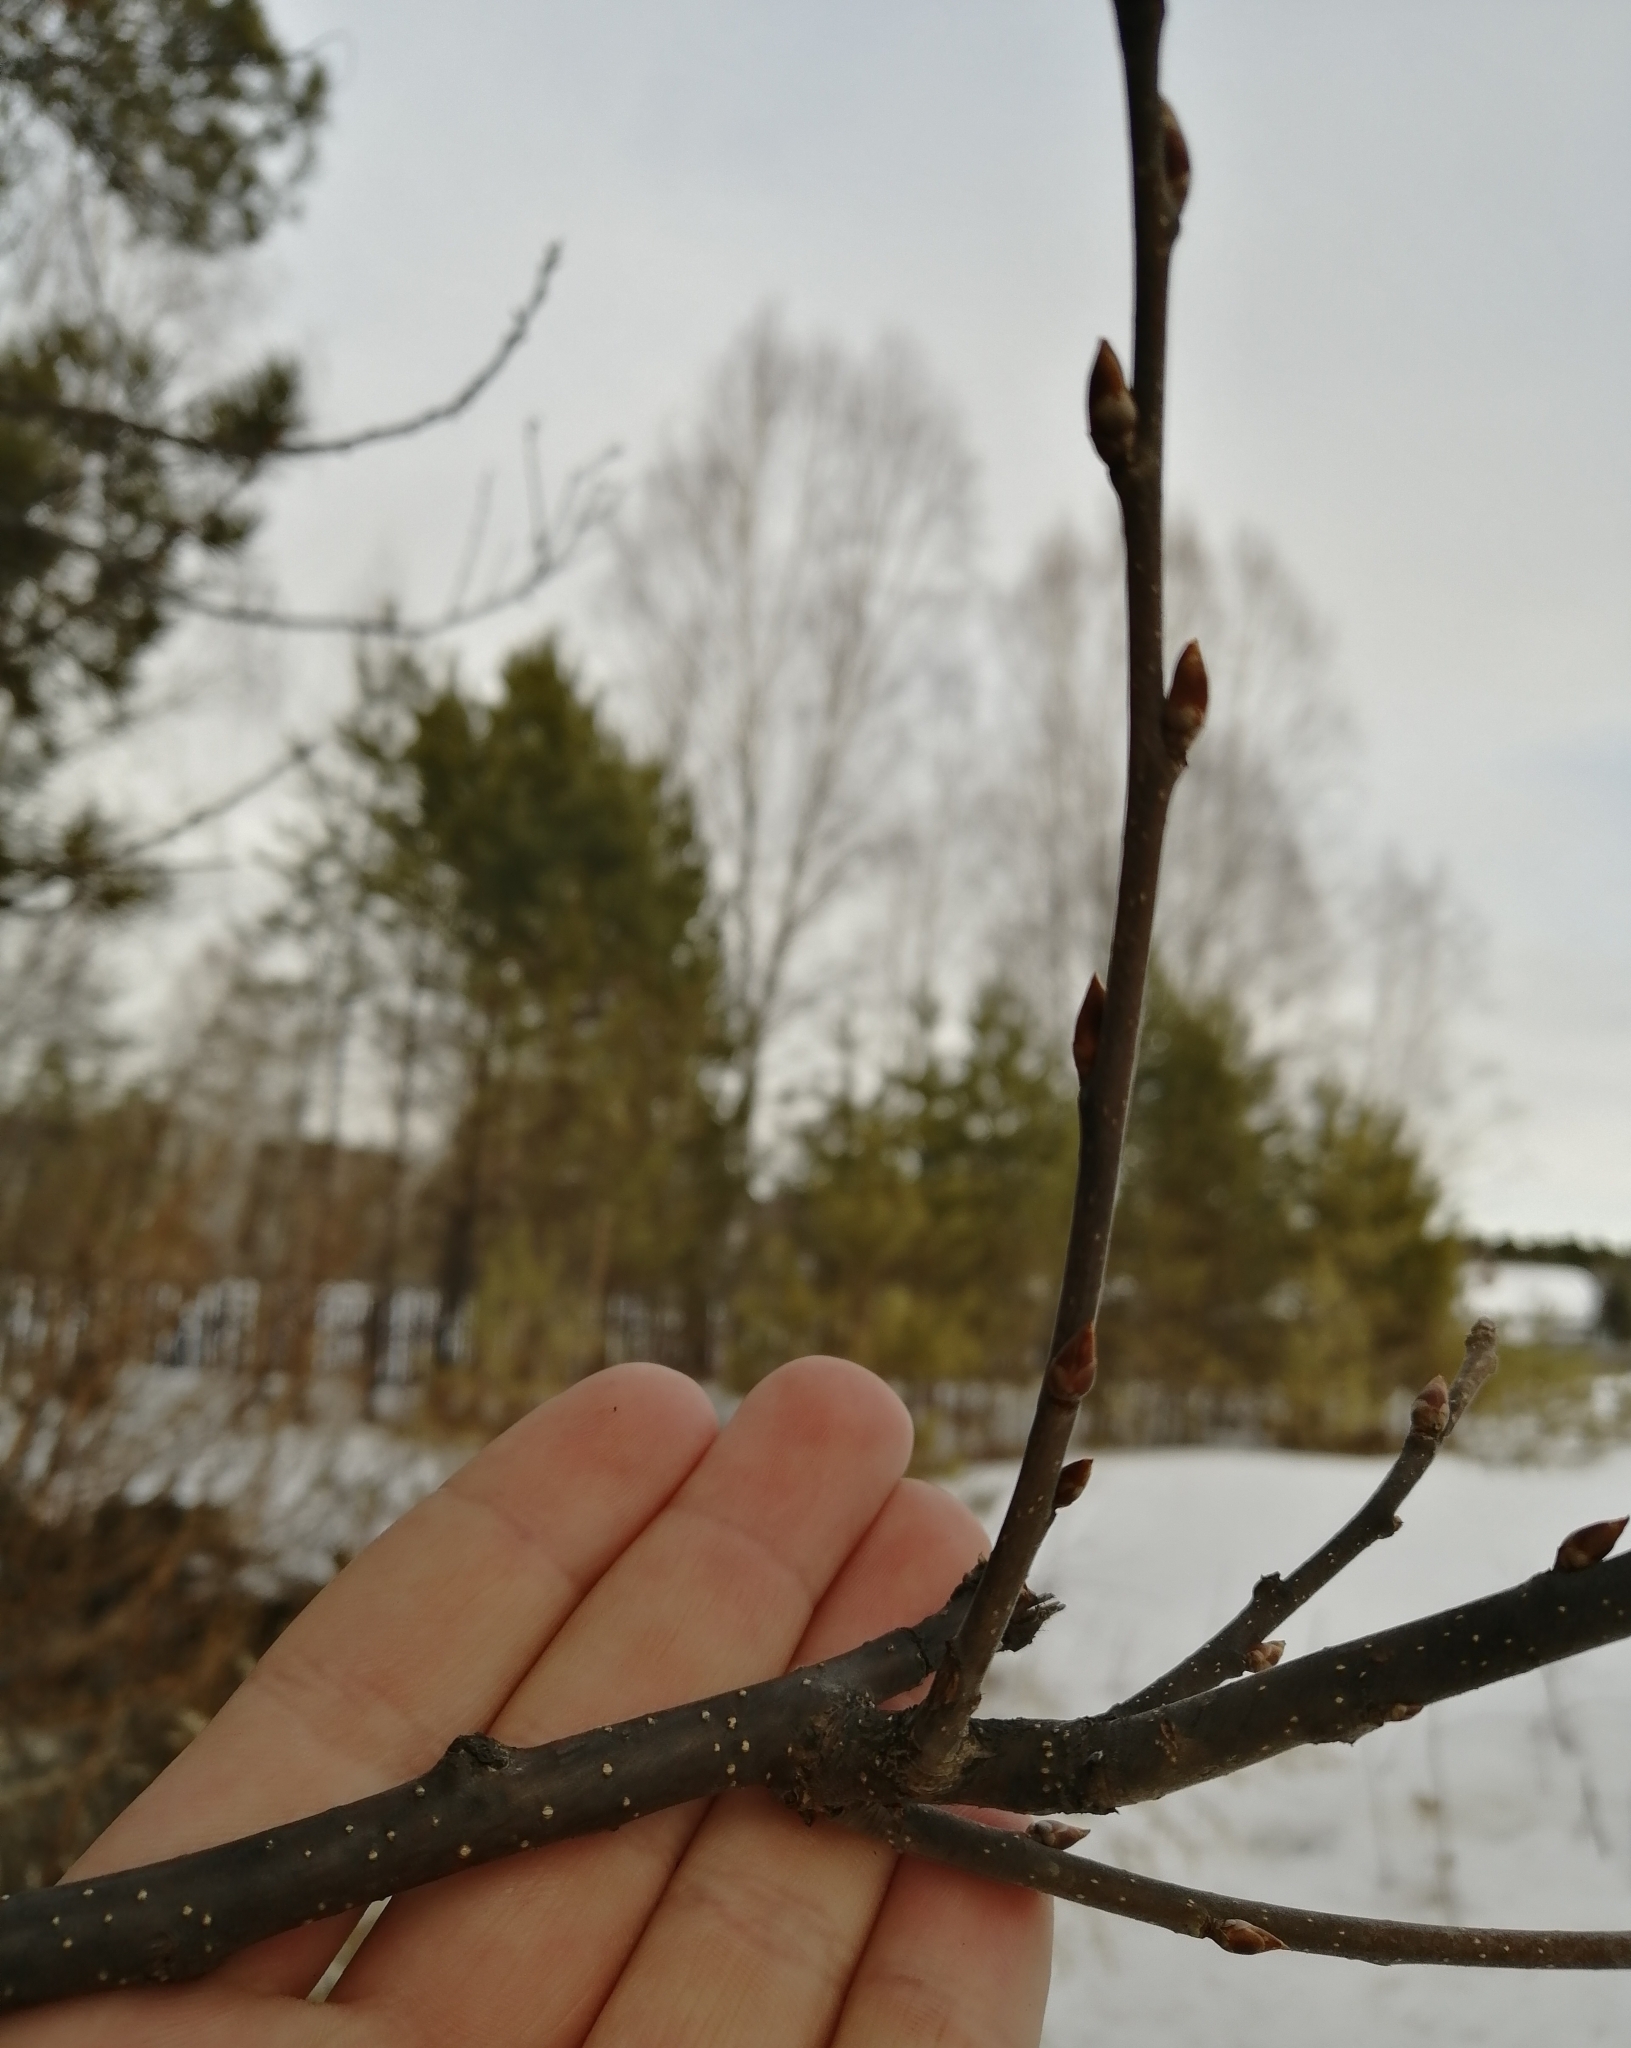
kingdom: Plantae
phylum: Tracheophyta
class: Magnoliopsida
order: Rosales
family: Rosaceae
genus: Prunus
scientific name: Prunus padus
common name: Bird cherry
